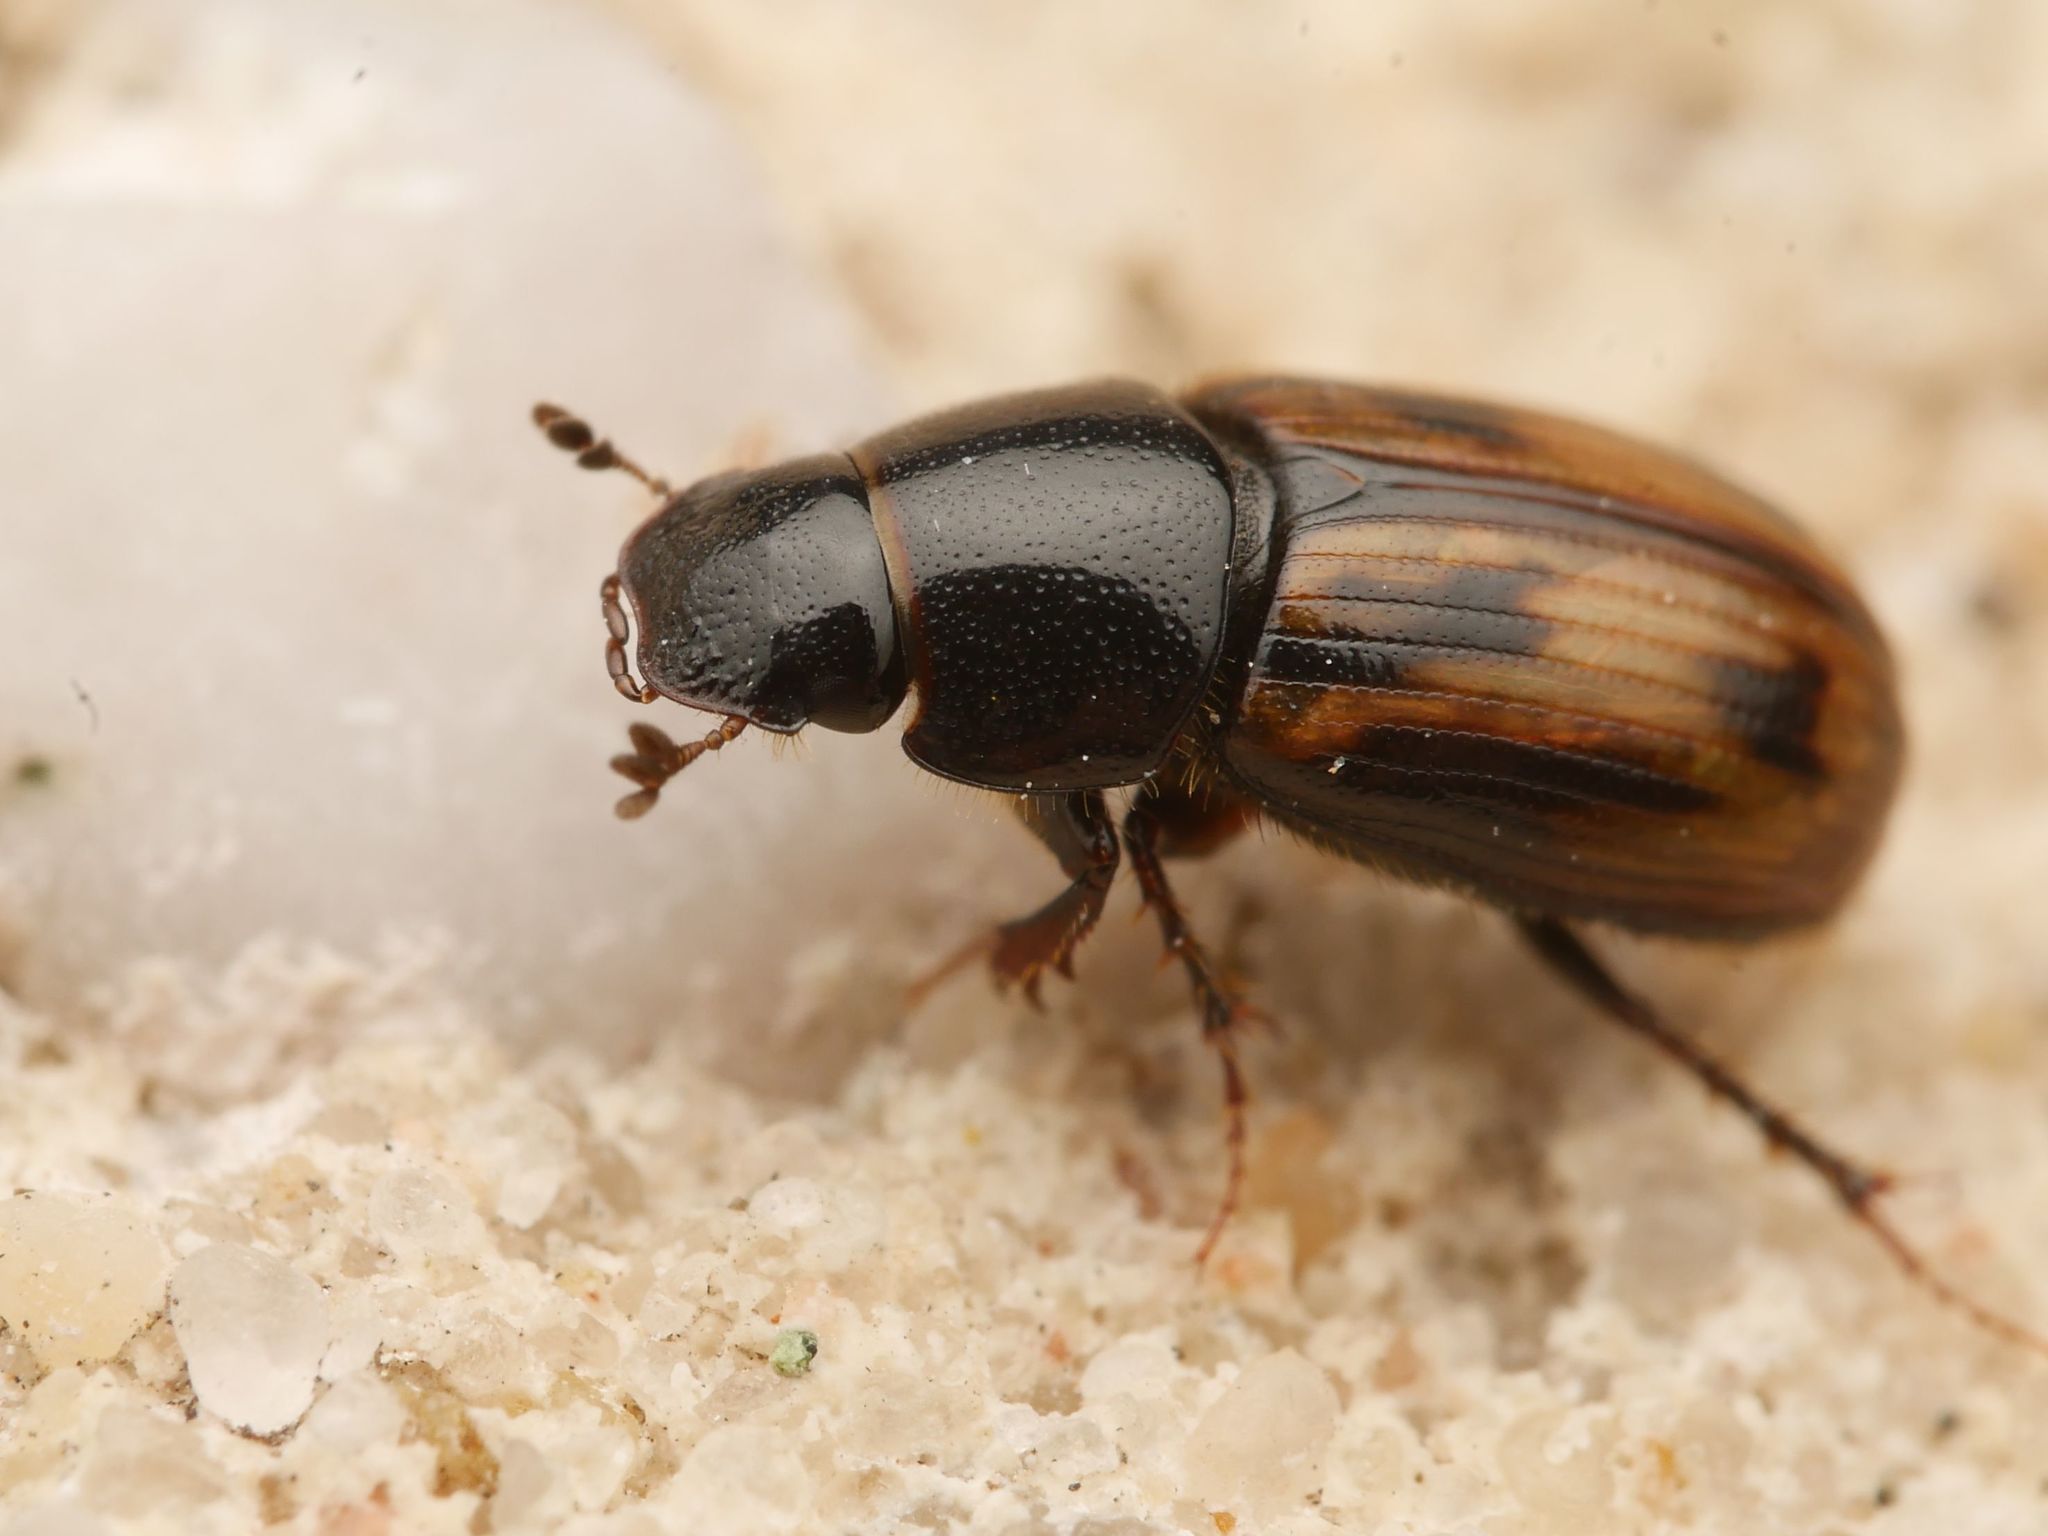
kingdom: Animalia
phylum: Arthropoda
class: Insecta
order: Coleoptera
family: Scarabaeidae
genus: Chilothorax
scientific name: Chilothorax distinctus
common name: Maculated dung beetle
